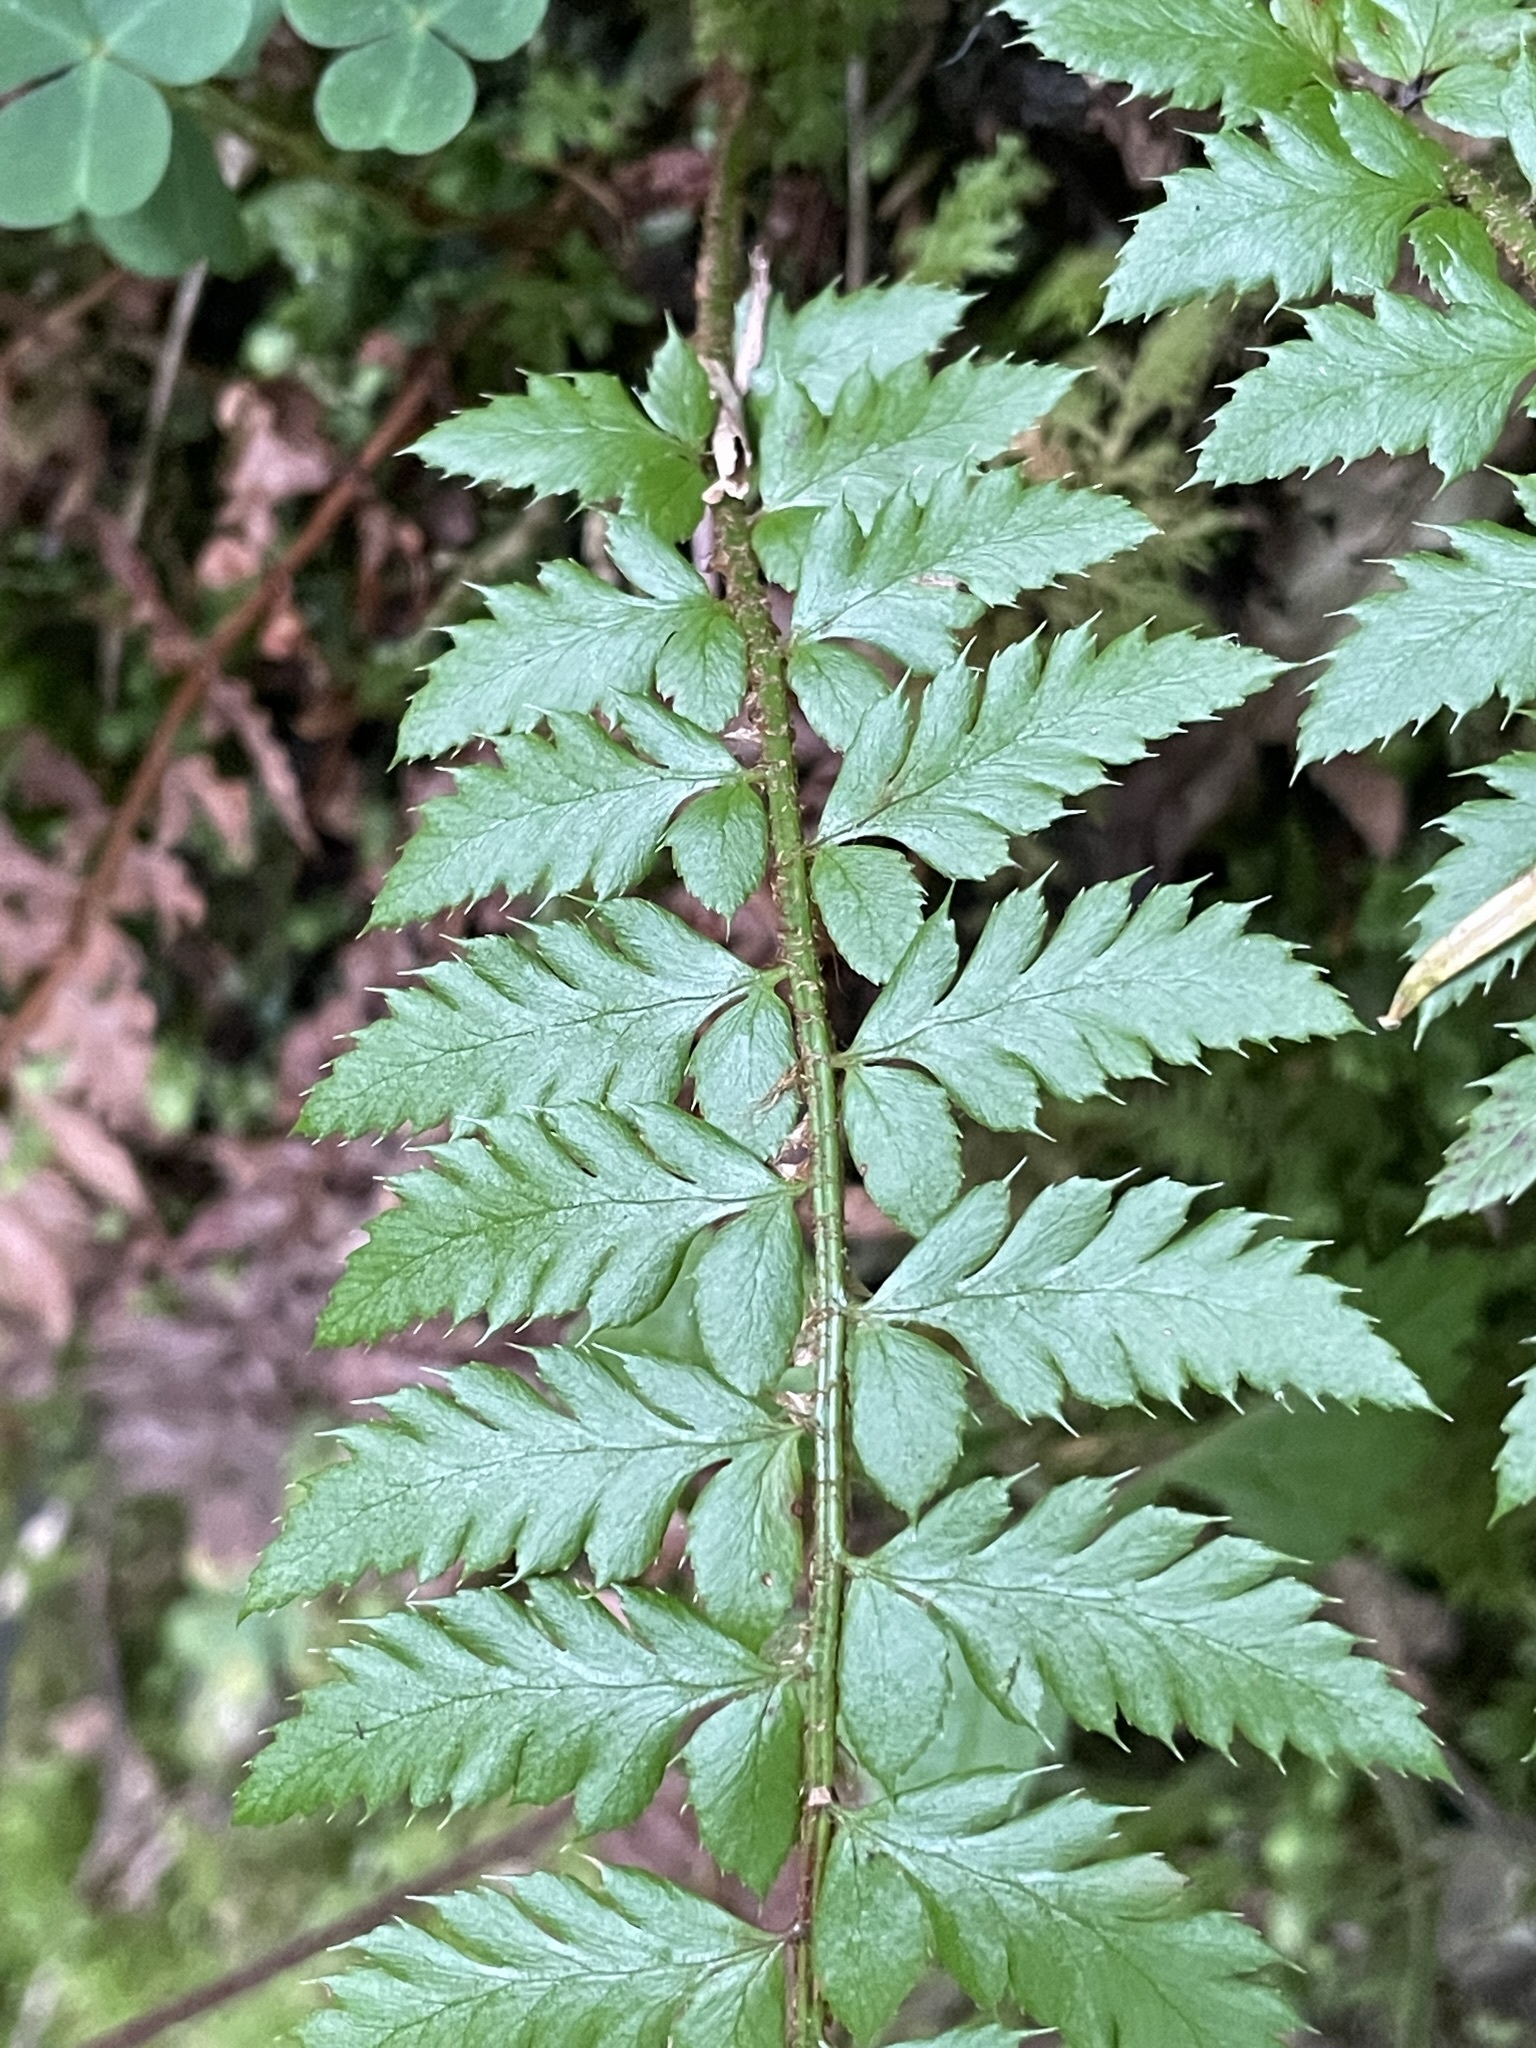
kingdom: Plantae
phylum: Tracheophyta
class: Polypodiopsida
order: Polypodiales
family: Dryopteridaceae
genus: Polystichum
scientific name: Polystichum aculeatum
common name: Hard shield-fern
